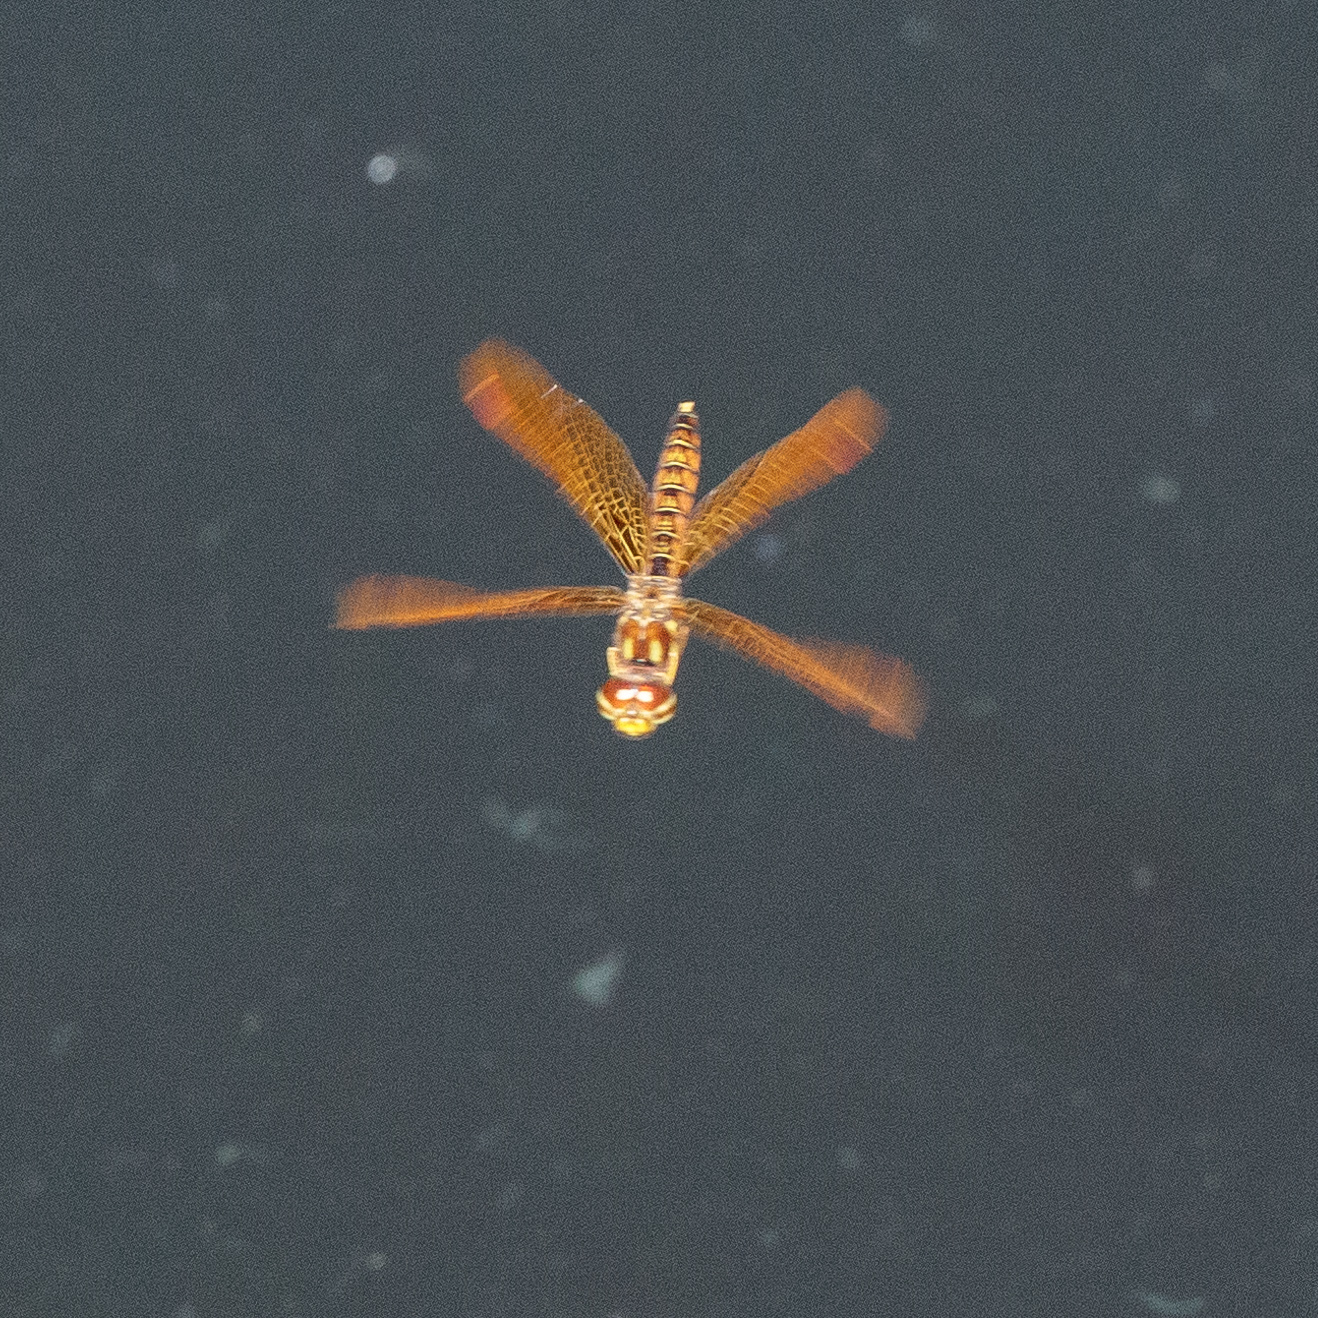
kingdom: Animalia
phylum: Arthropoda
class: Insecta
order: Odonata
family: Libellulidae
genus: Perithemis
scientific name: Perithemis tenera
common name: Eastern amberwing
